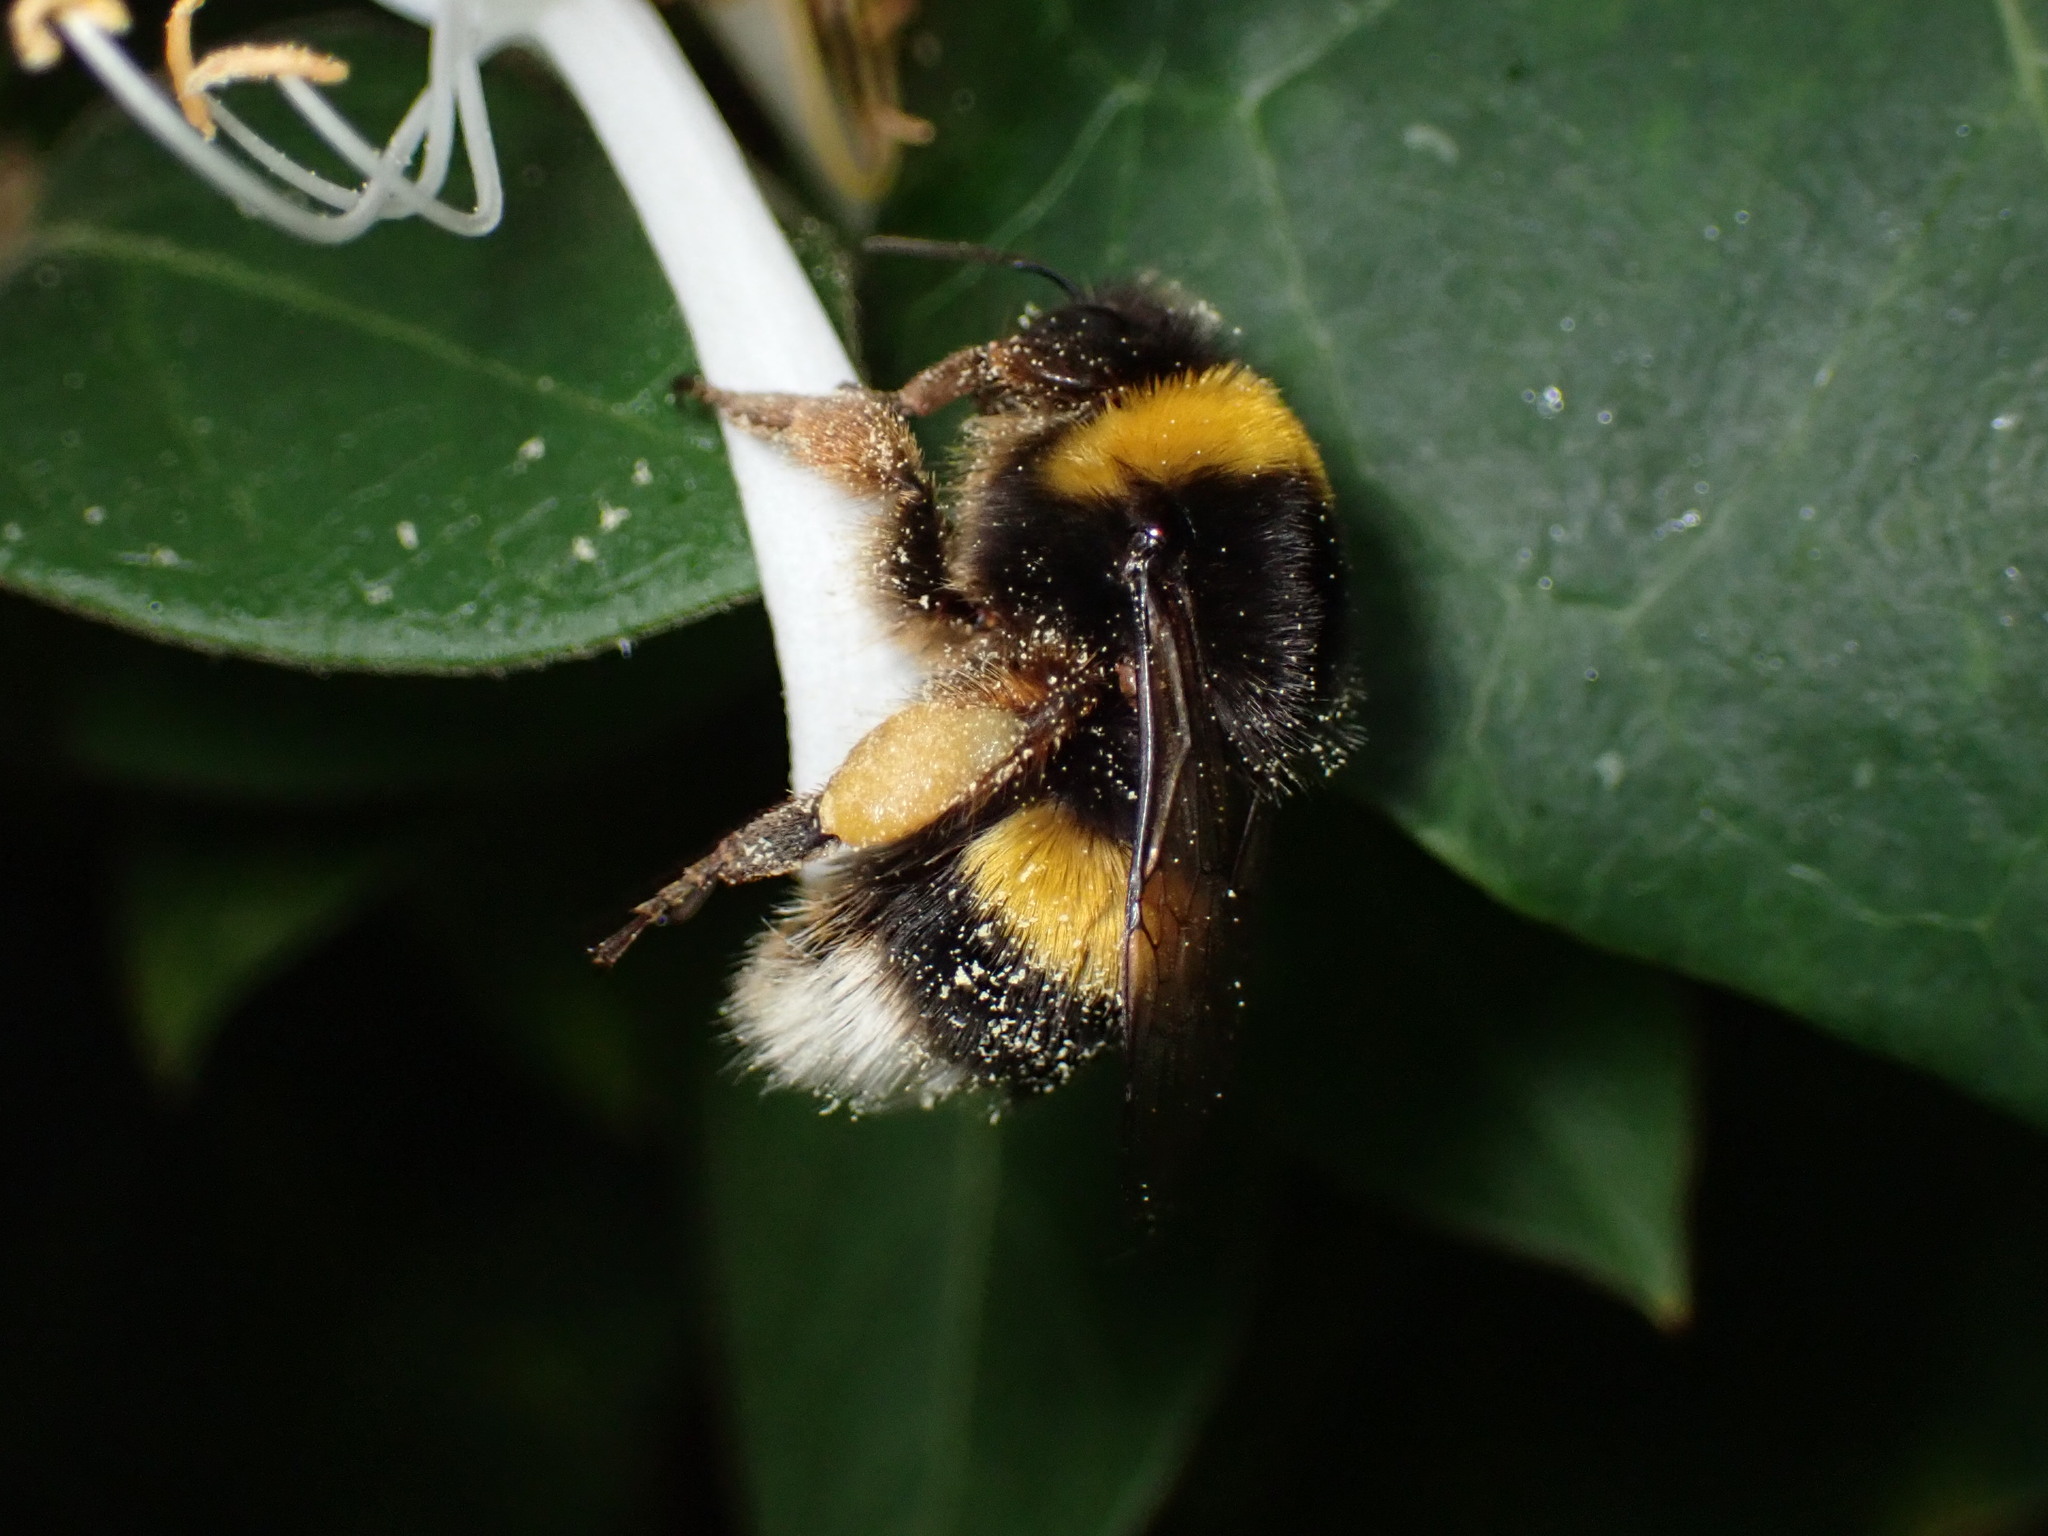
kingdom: Animalia
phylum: Arthropoda
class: Insecta
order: Hymenoptera
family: Apidae
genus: Bombus
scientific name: Bombus terrestris
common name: Buff-tailed bumblebee
